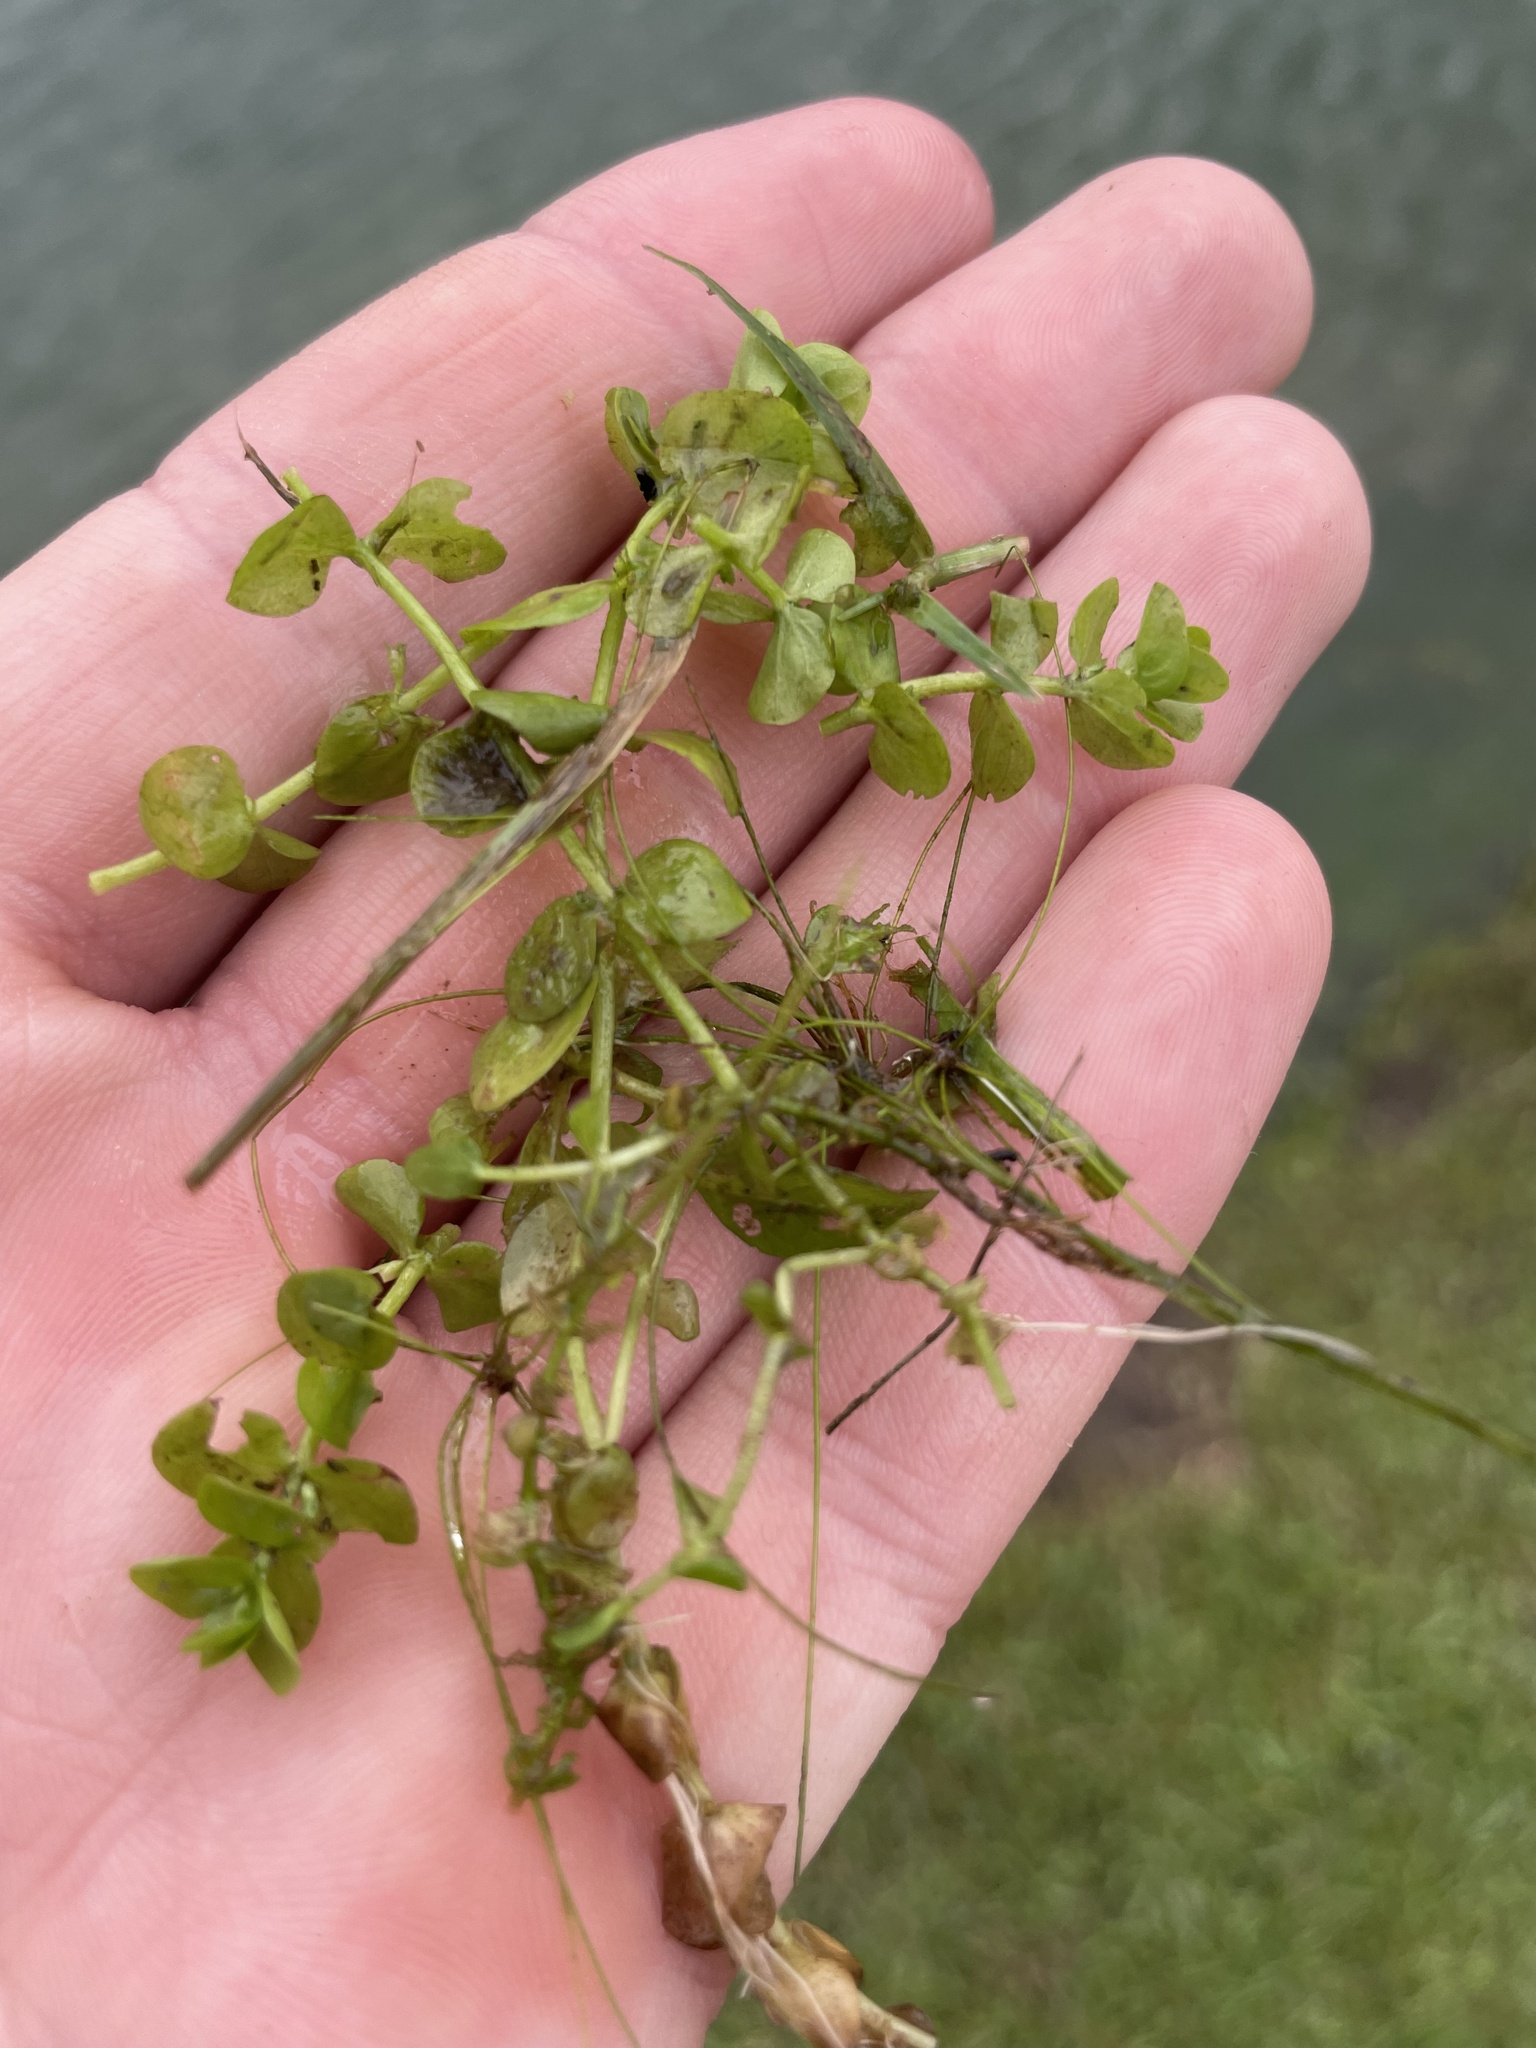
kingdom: Plantae
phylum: Tracheophyta
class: Magnoliopsida
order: Lamiales
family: Linderniaceae
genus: Micranthemum
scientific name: Micranthemum umbrosum
